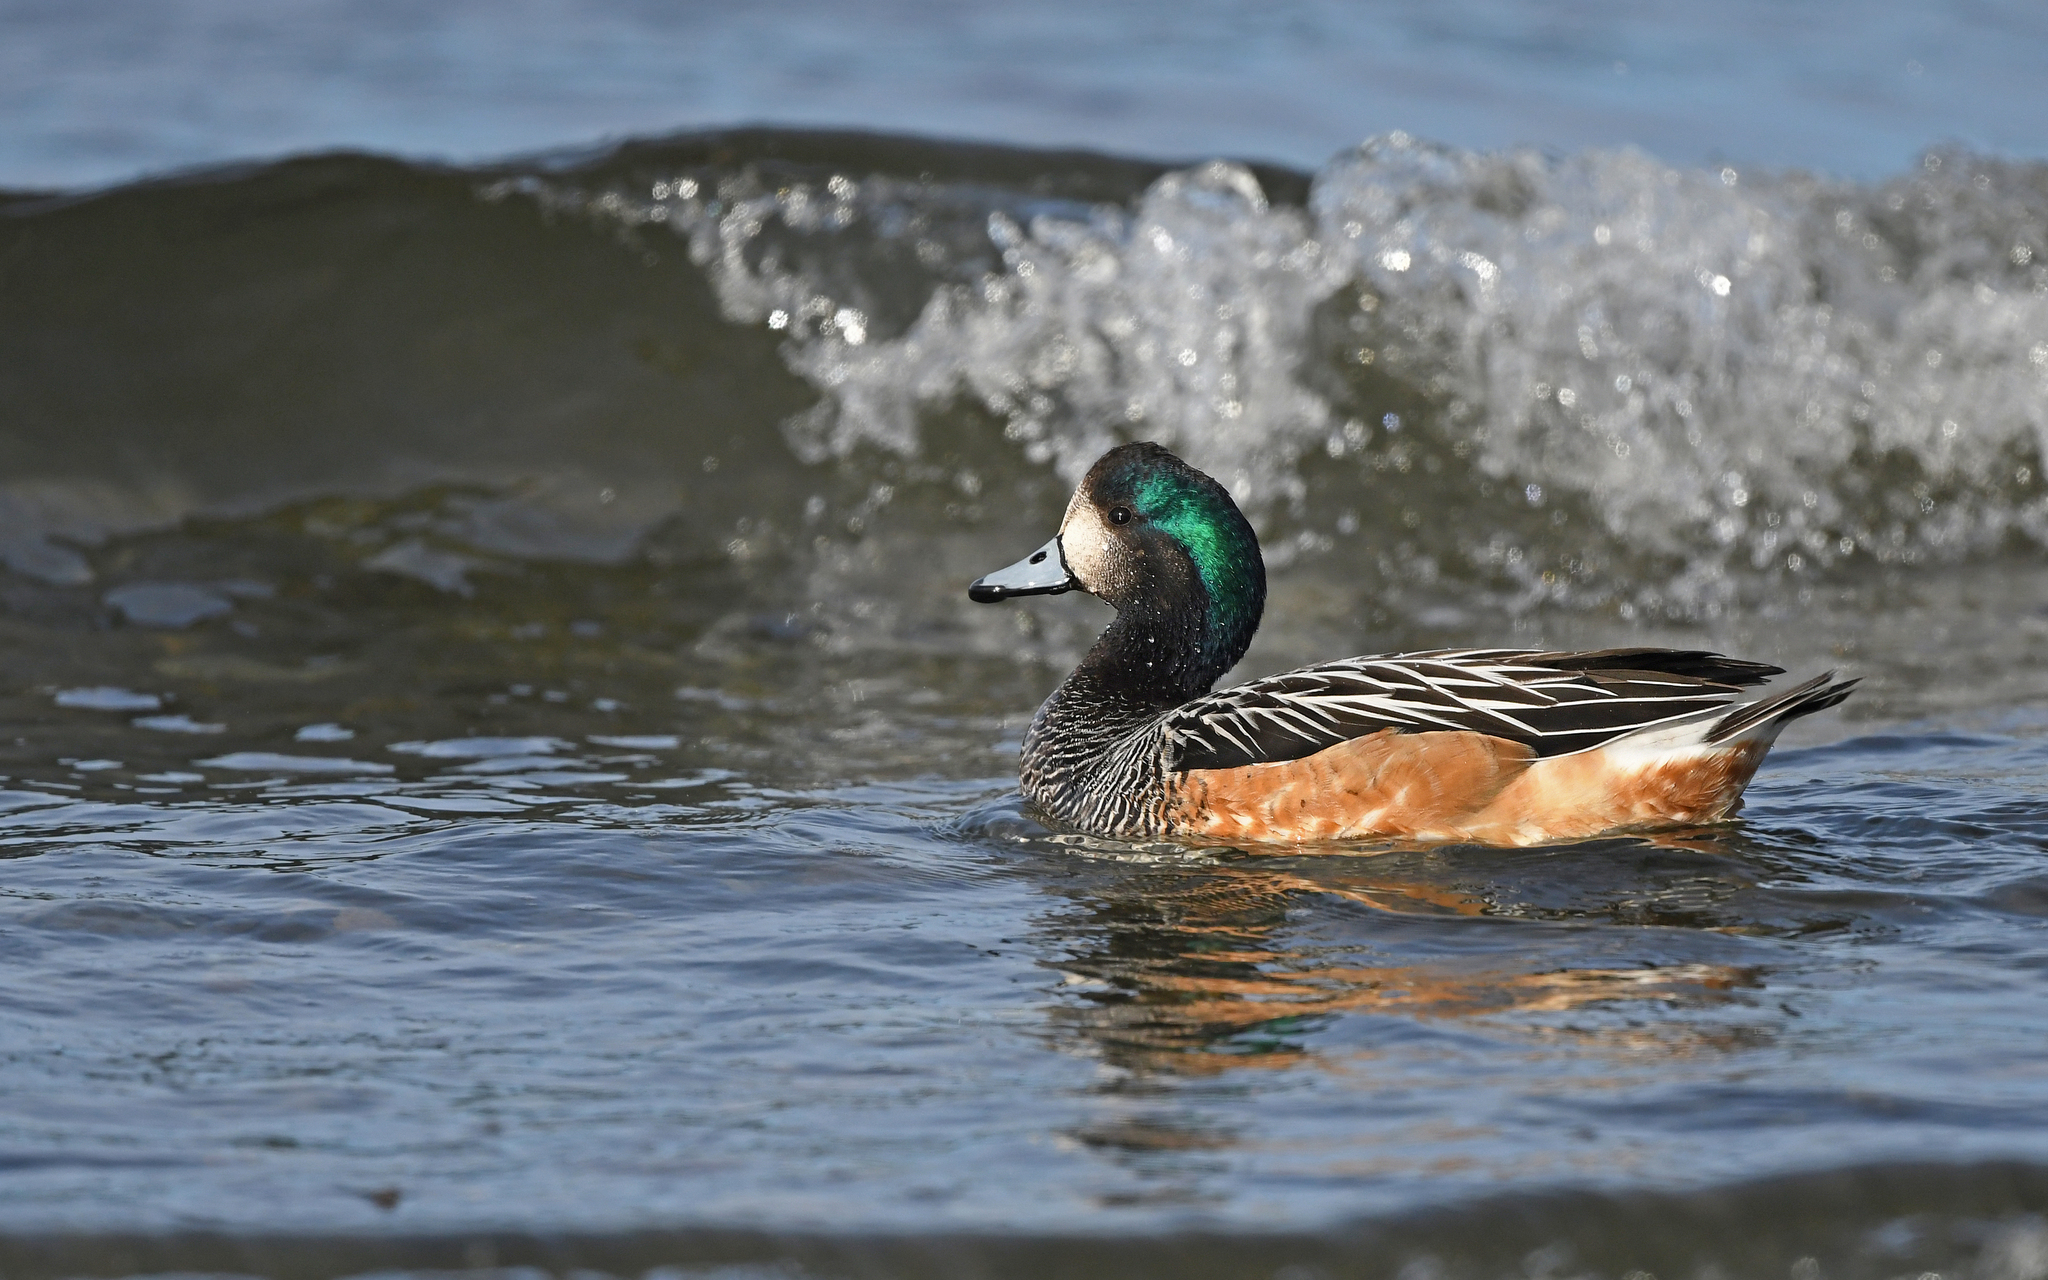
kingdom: Animalia
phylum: Chordata
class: Aves
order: Anseriformes
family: Anatidae
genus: Mareca
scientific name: Mareca sibilatrix
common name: Chiloe wigeon
